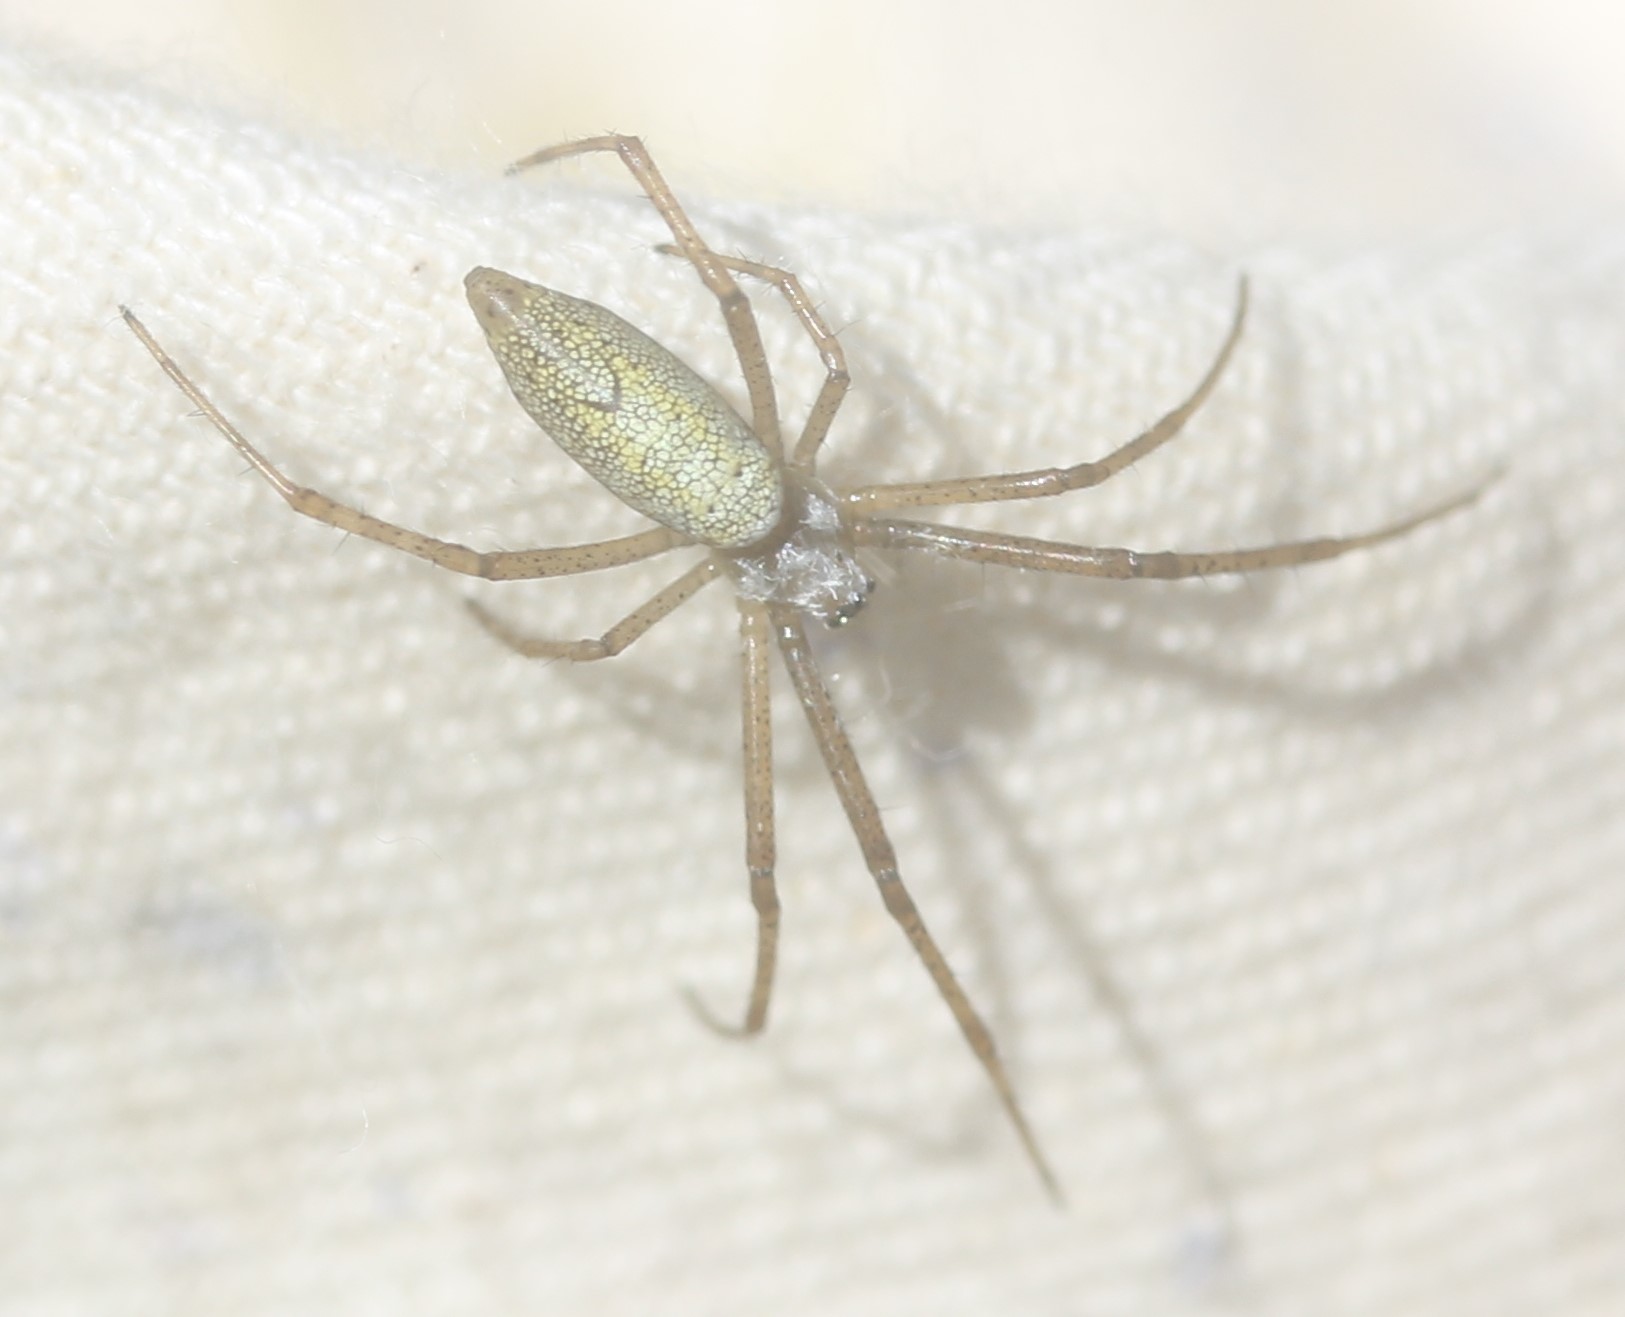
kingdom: Animalia
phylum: Arthropoda
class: Arachnida
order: Araneae
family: Araneidae
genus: Argiope
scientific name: Argiope trifasciata
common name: Banded garden spider
